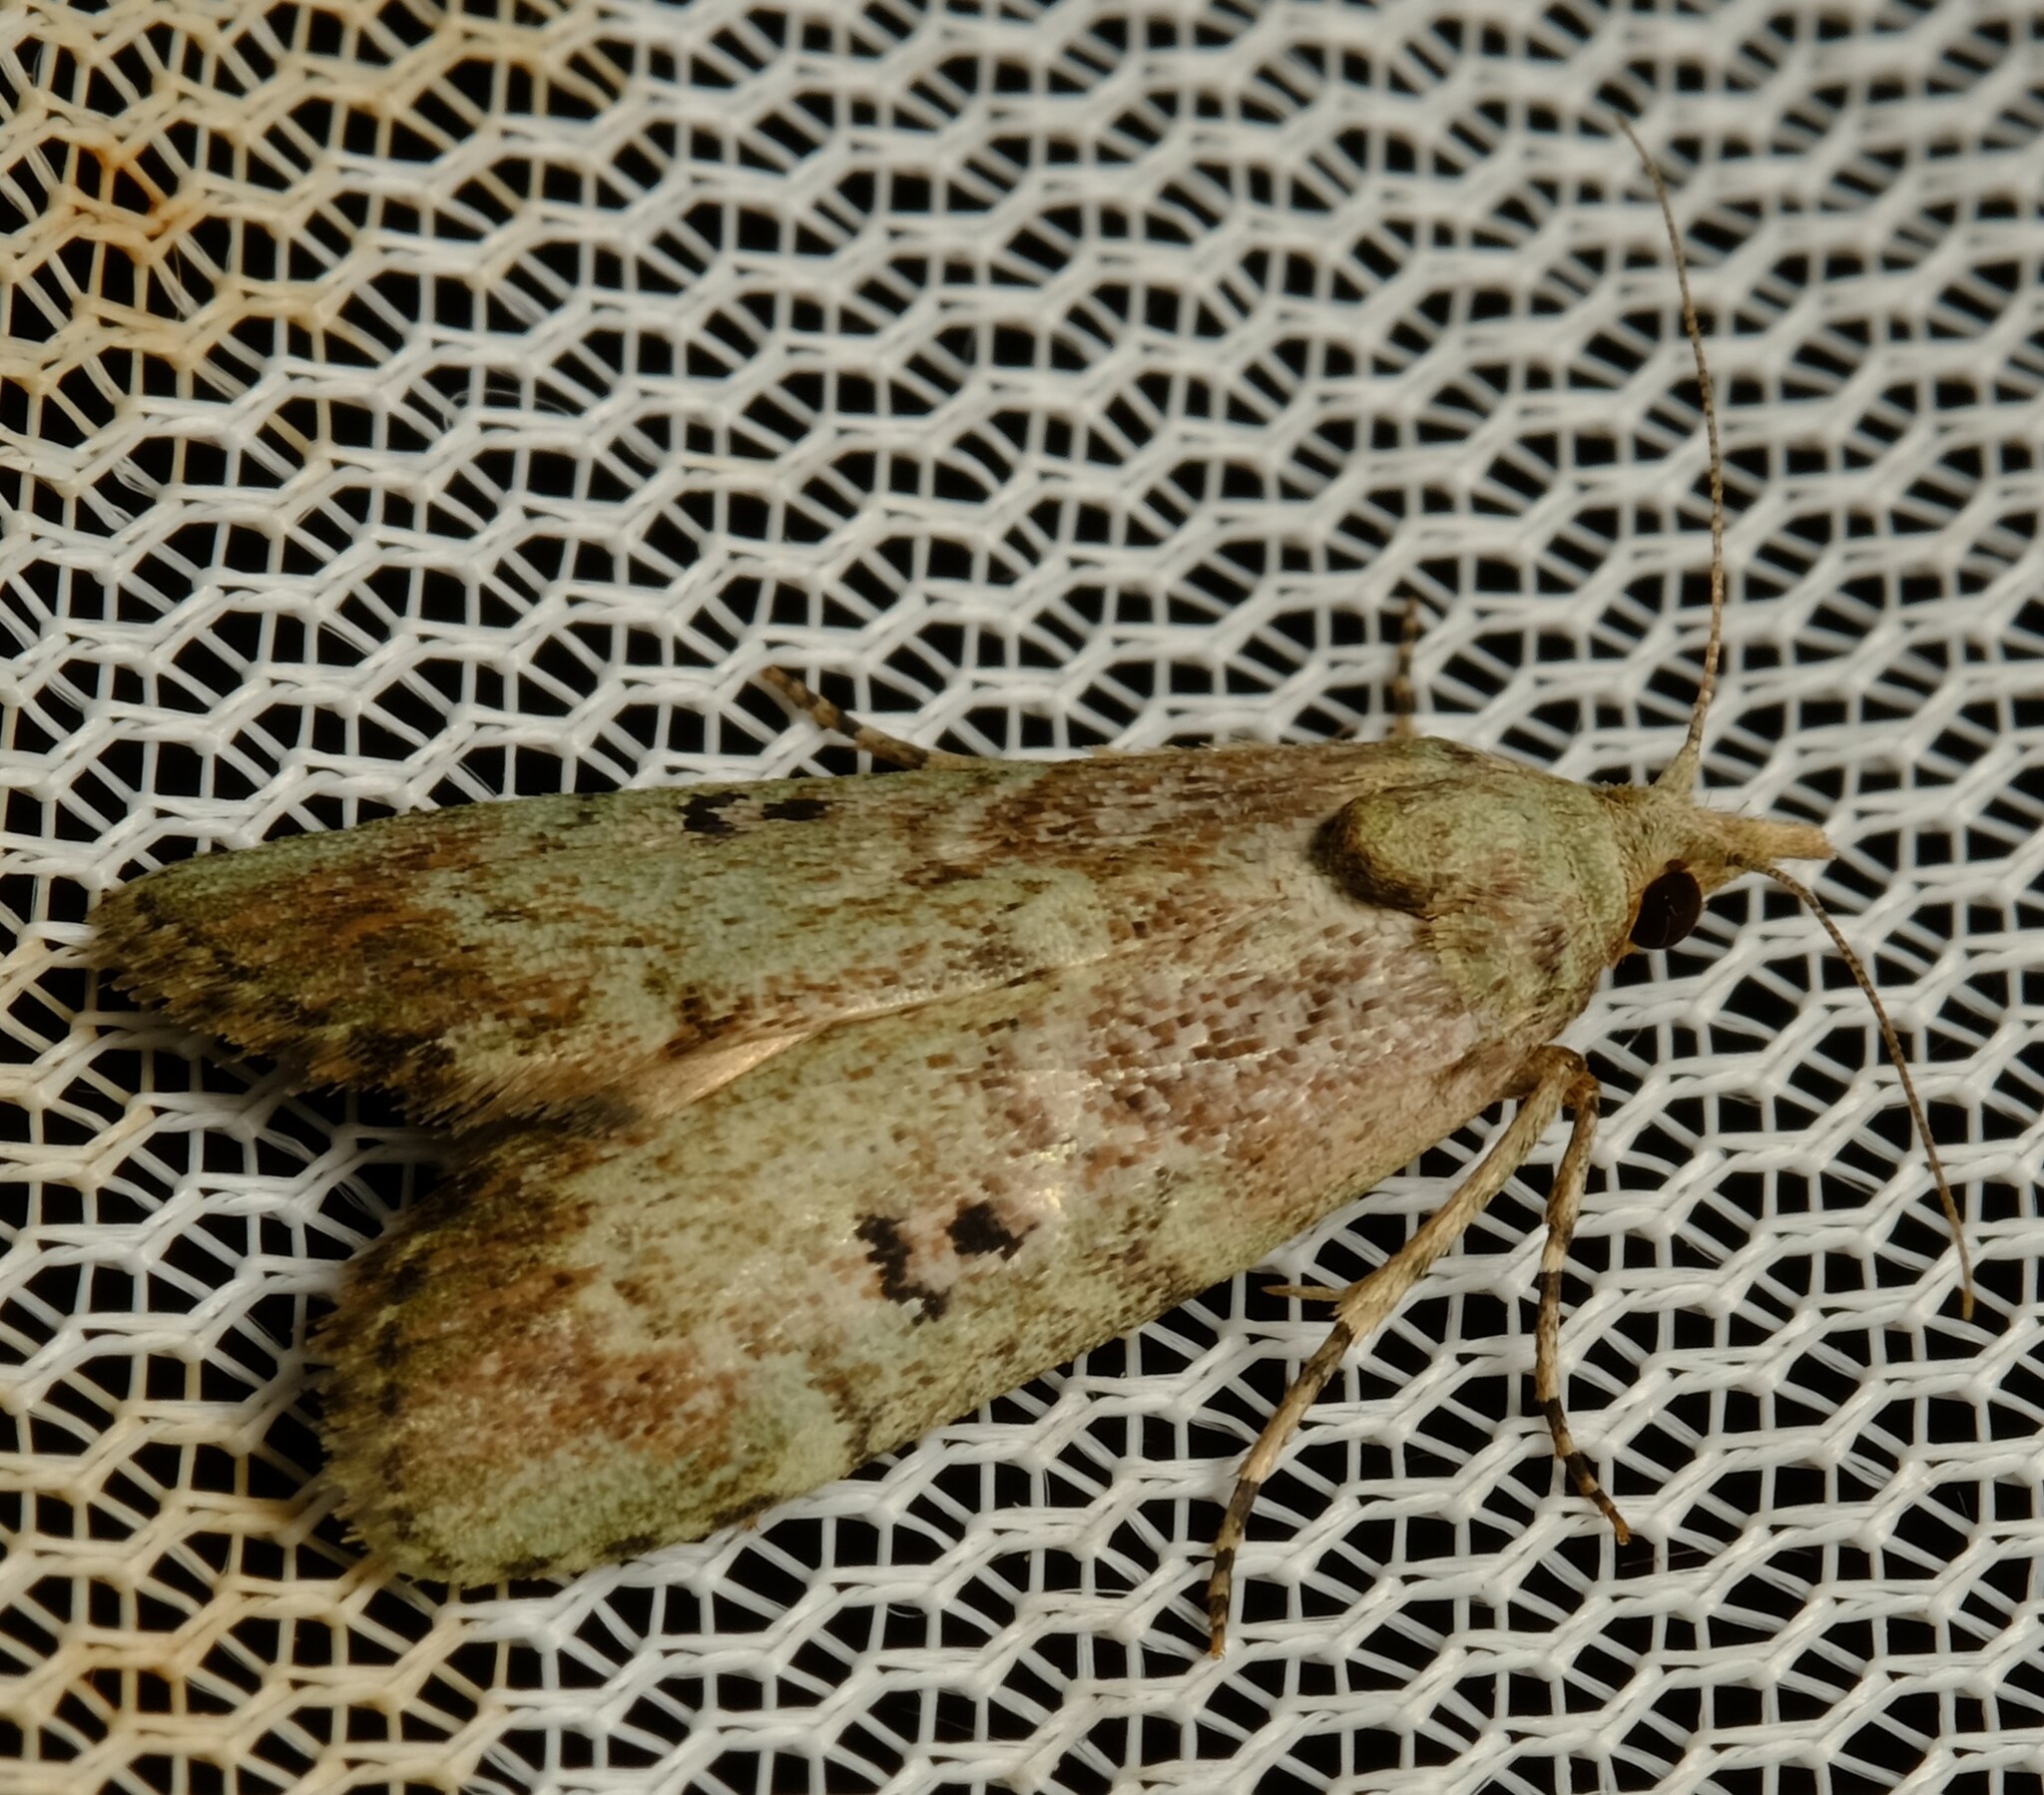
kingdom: Animalia
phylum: Arthropoda
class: Insecta
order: Lepidoptera
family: Pyralidae
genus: Heteromicta
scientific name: Heteromicta tripartitella
